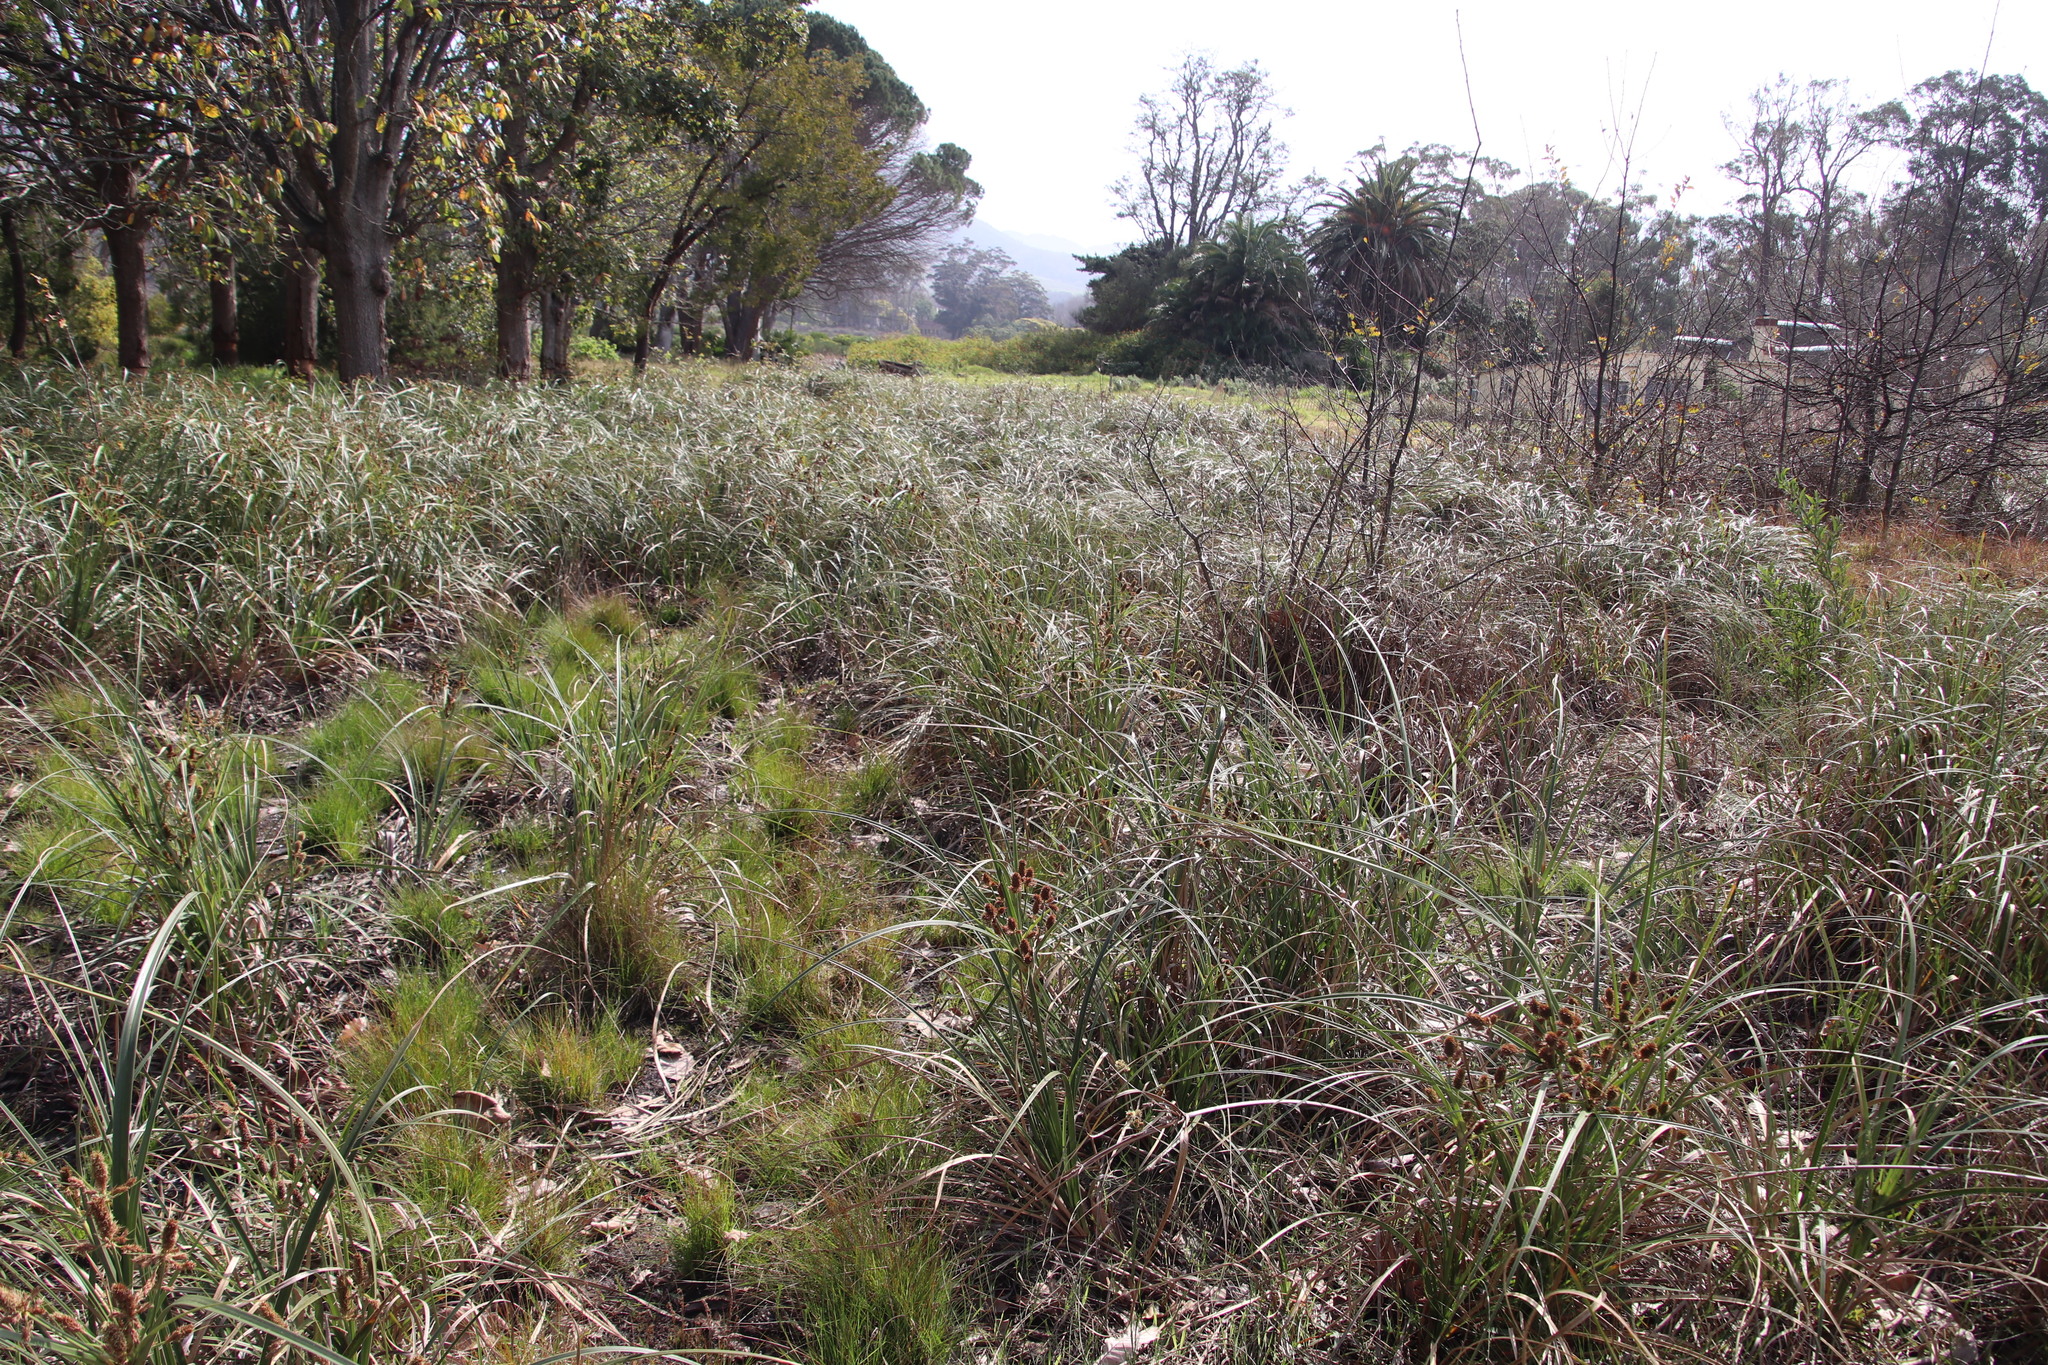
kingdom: Plantae
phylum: Tracheophyta
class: Liliopsida
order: Poales
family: Cyperaceae
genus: Cyperus
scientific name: Cyperus thunbergii
